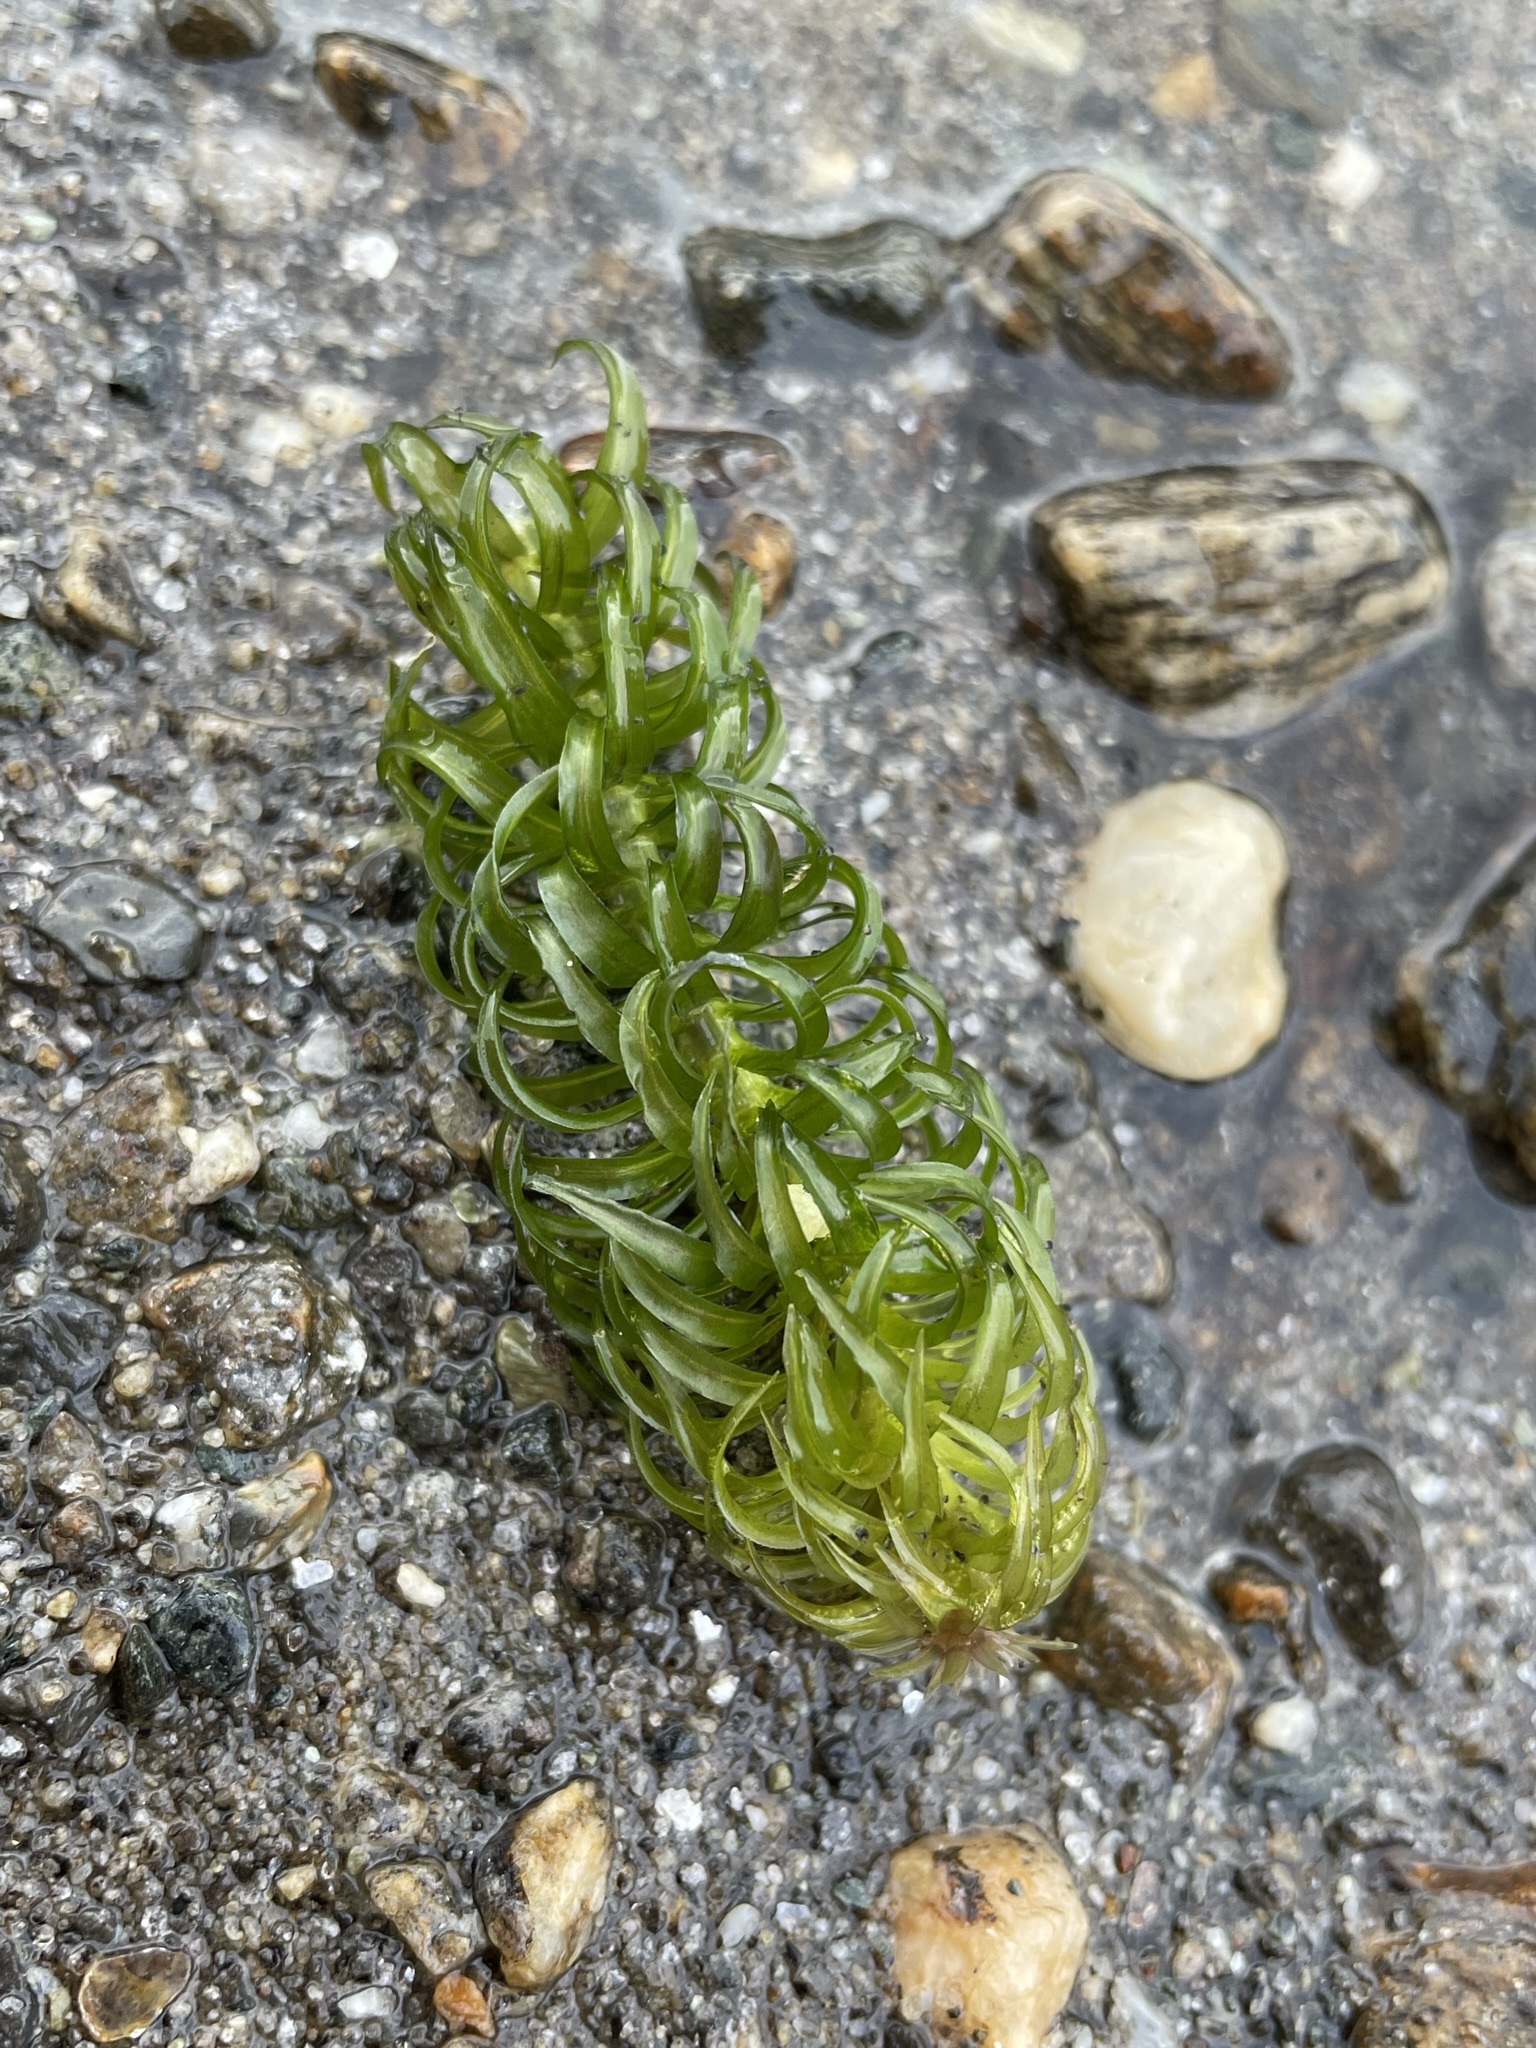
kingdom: Plantae
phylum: Tracheophyta
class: Liliopsida
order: Alismatales
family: Hydrocharitaceae
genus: Lagarosiphon
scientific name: Lagarosiphon major
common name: Curly waterweed
